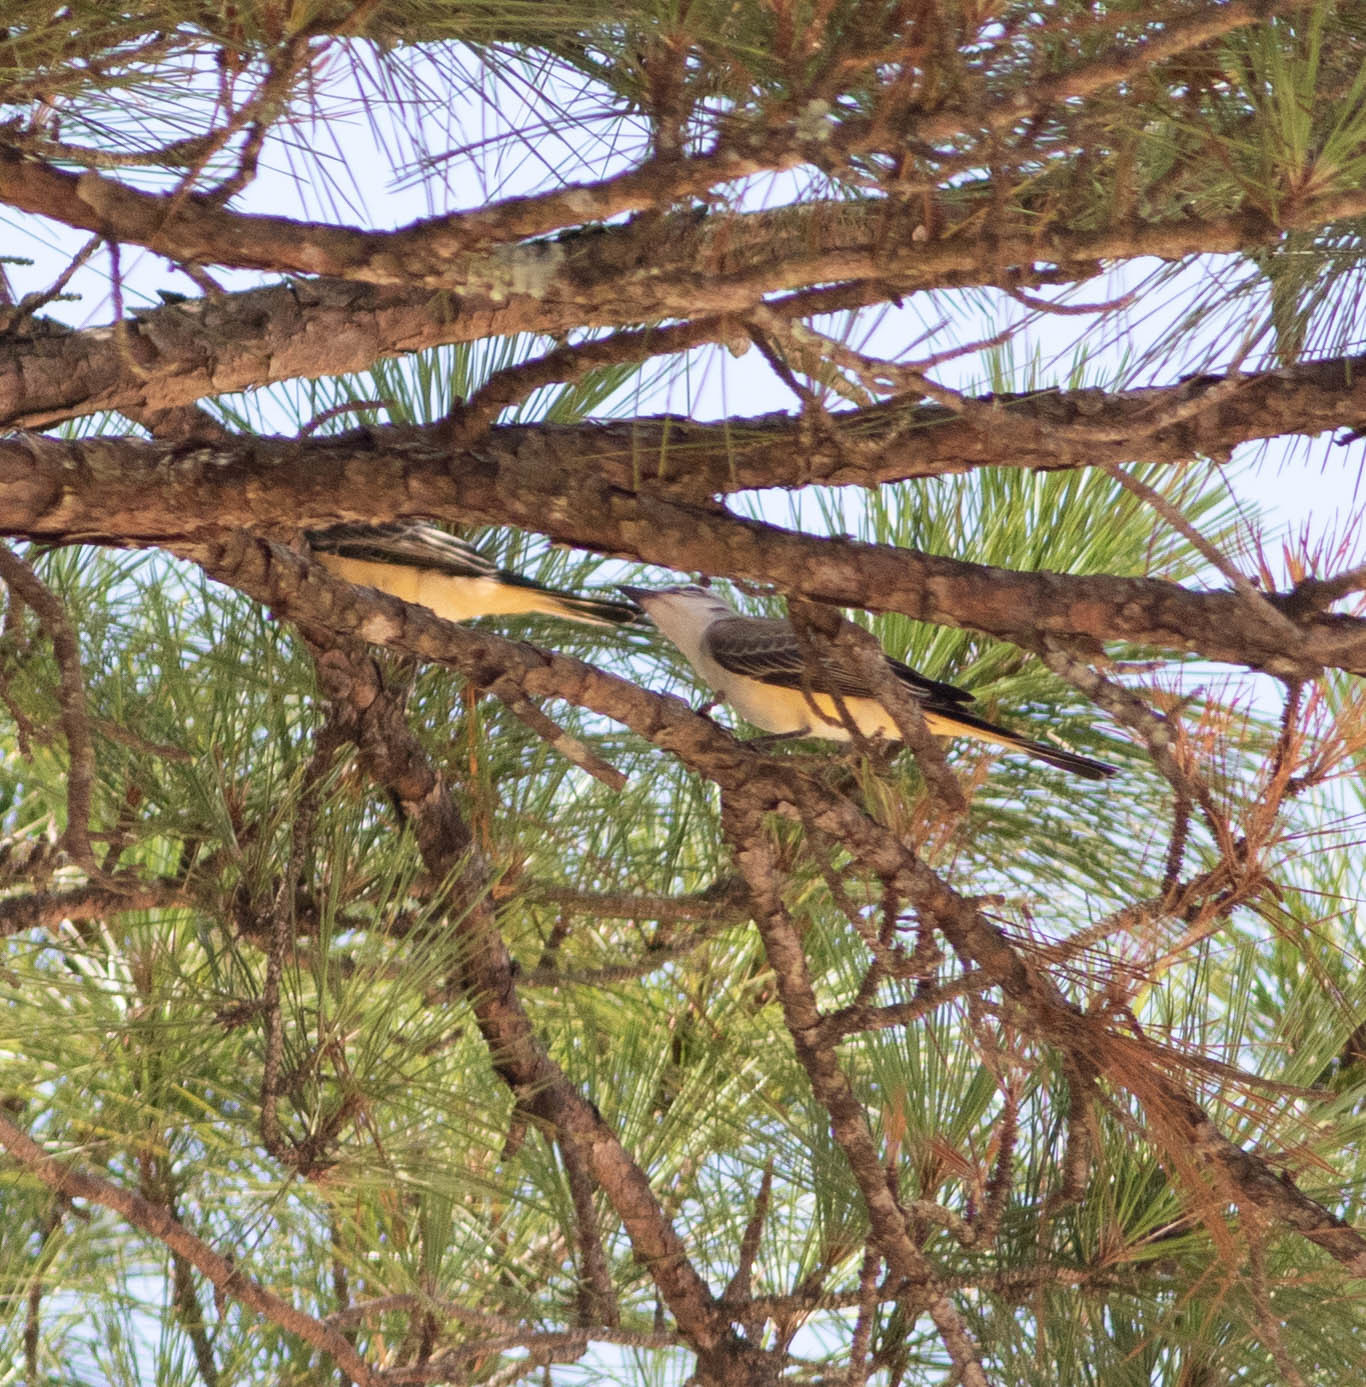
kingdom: Animalia
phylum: Chordata
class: Aves
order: Passeriformes
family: Tyrannidae
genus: Tyrannus
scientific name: Tyrannus forficatus
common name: Scissor-tailed flycatcher
